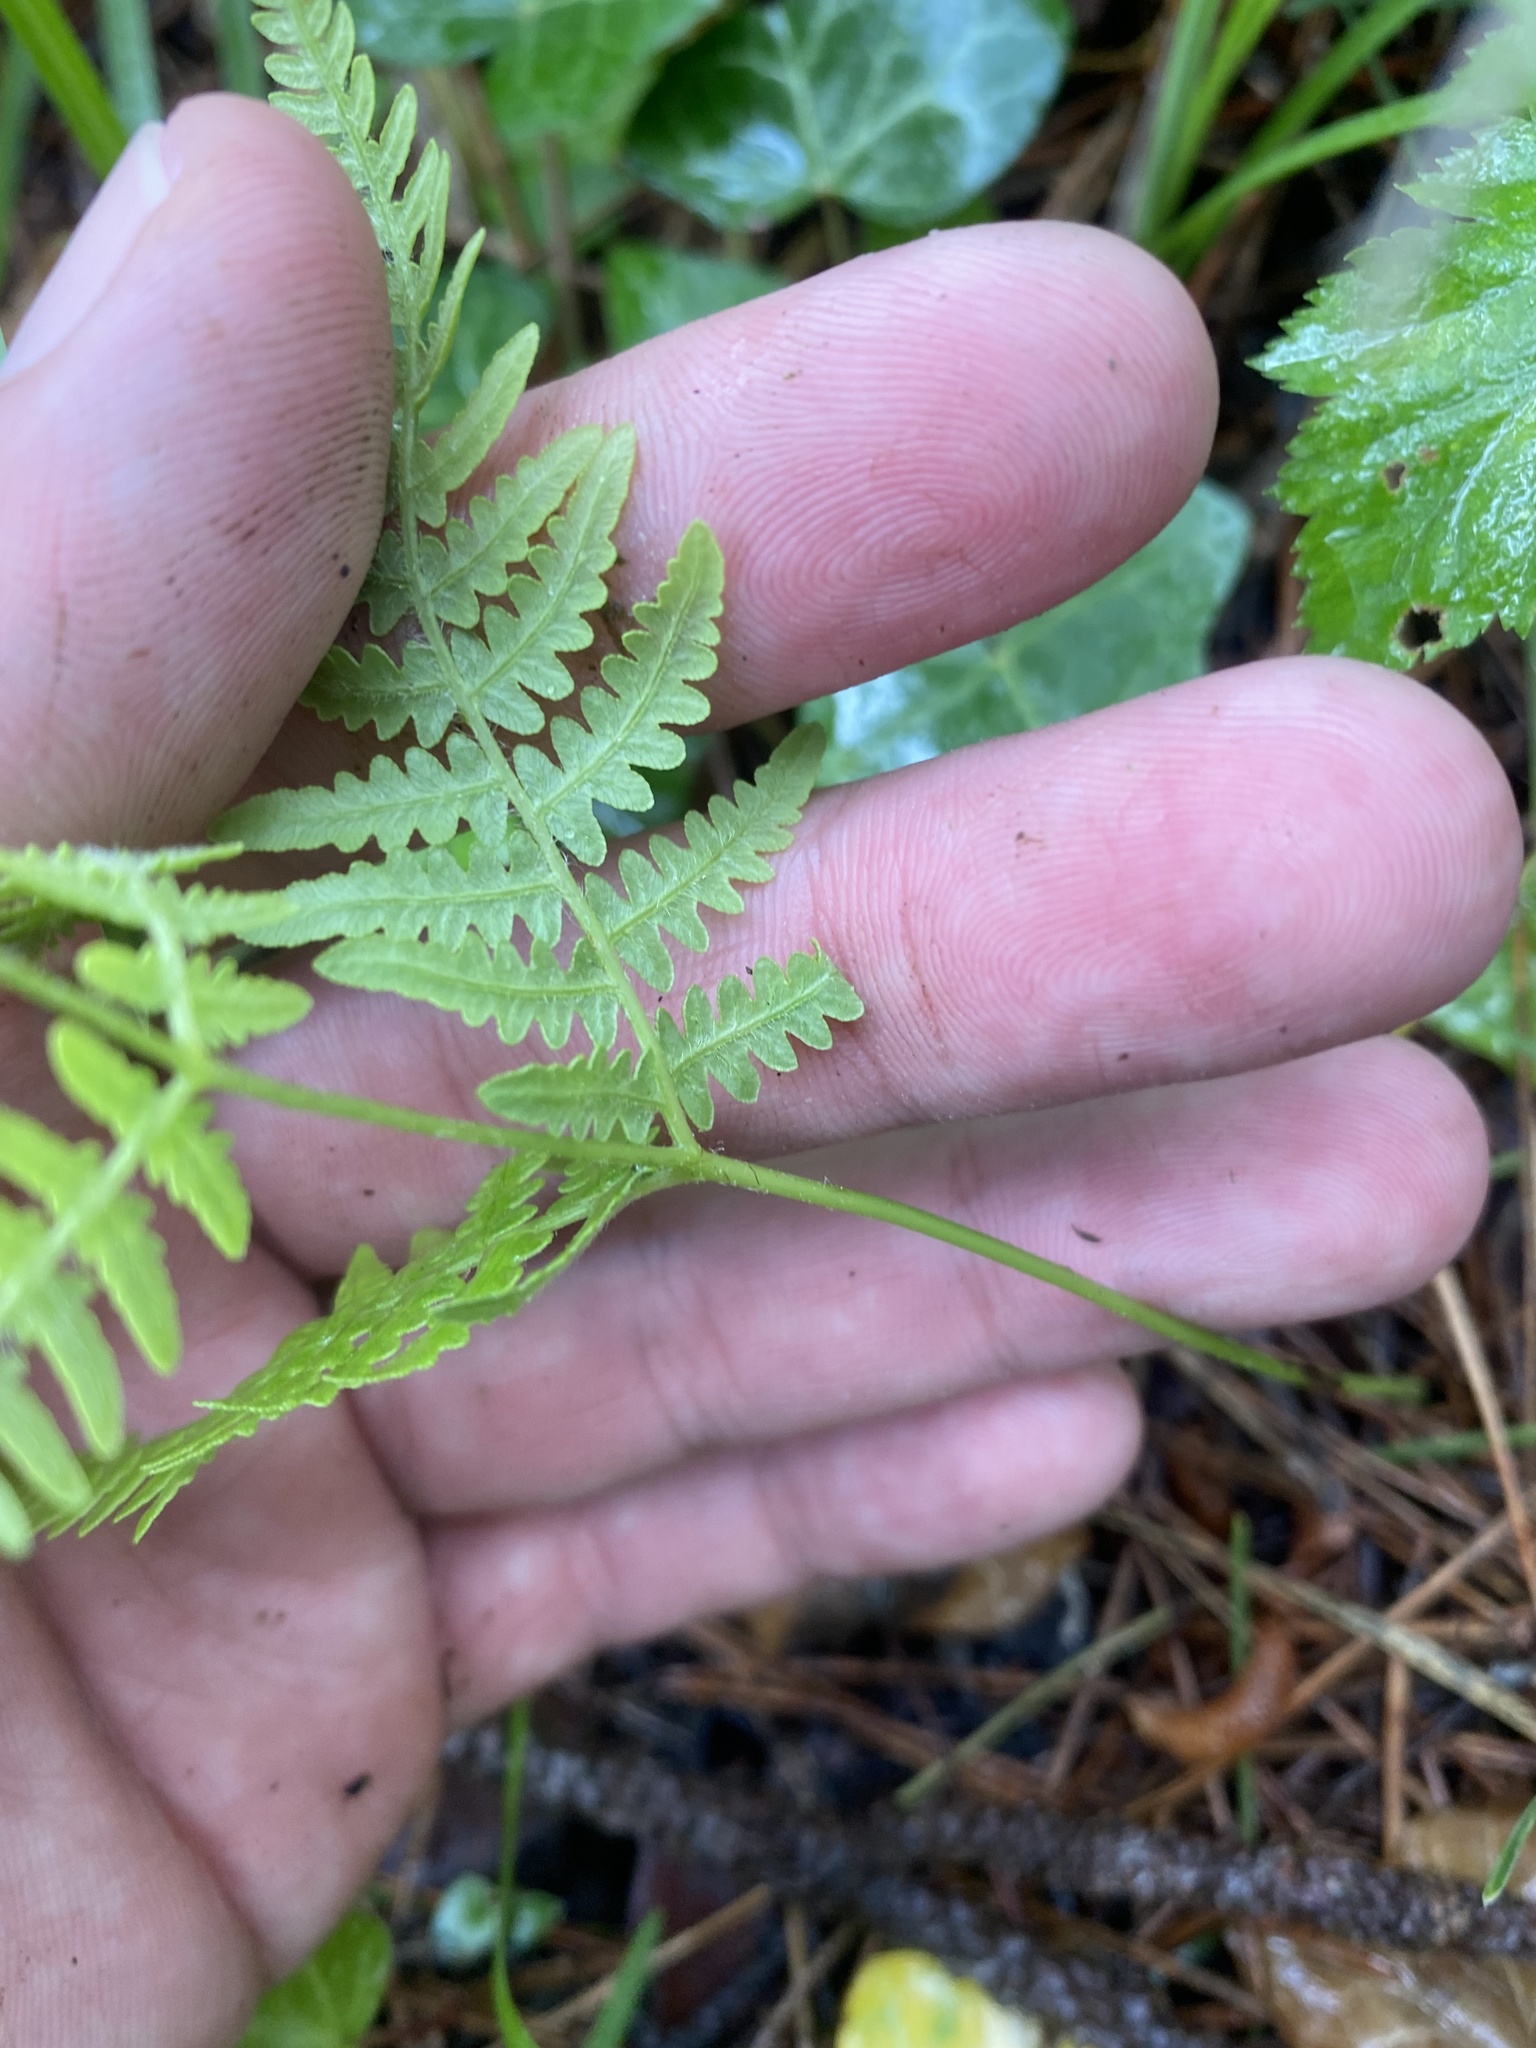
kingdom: Plantae
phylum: Tracheophyta
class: Polypodiopsida
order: Polypodiales
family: Dennstaedtiaceae
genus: Pteridium
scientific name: Pteridium tauricum
